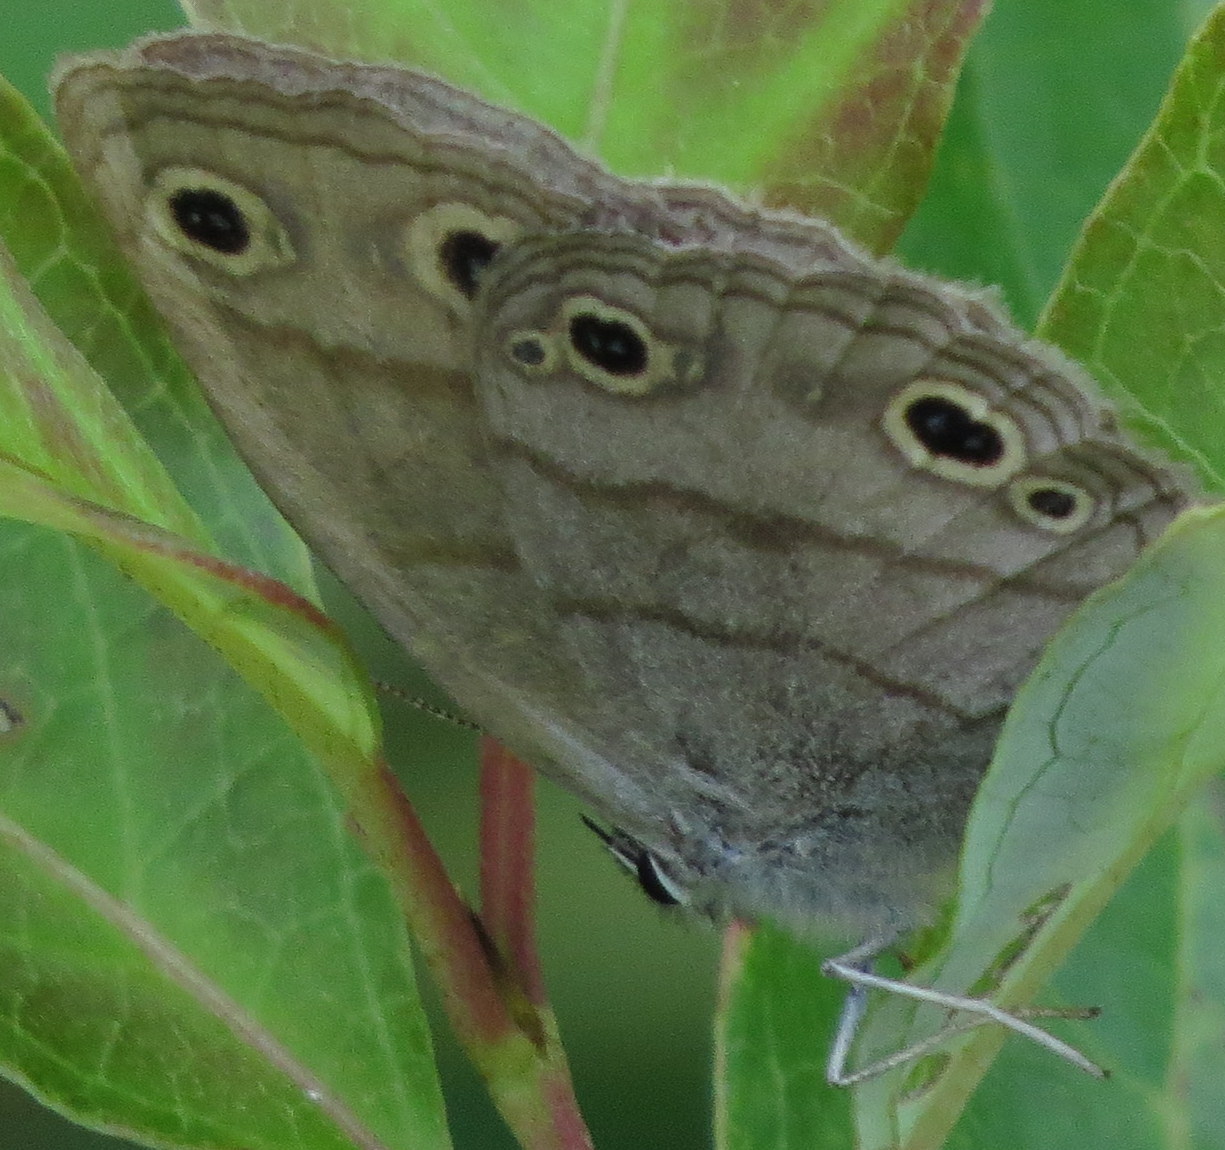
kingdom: Animalia
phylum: Arthropoda
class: Insecta
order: Lepidoptera
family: Nymphalidae
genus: Euptychia
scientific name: Euptychia cymela
